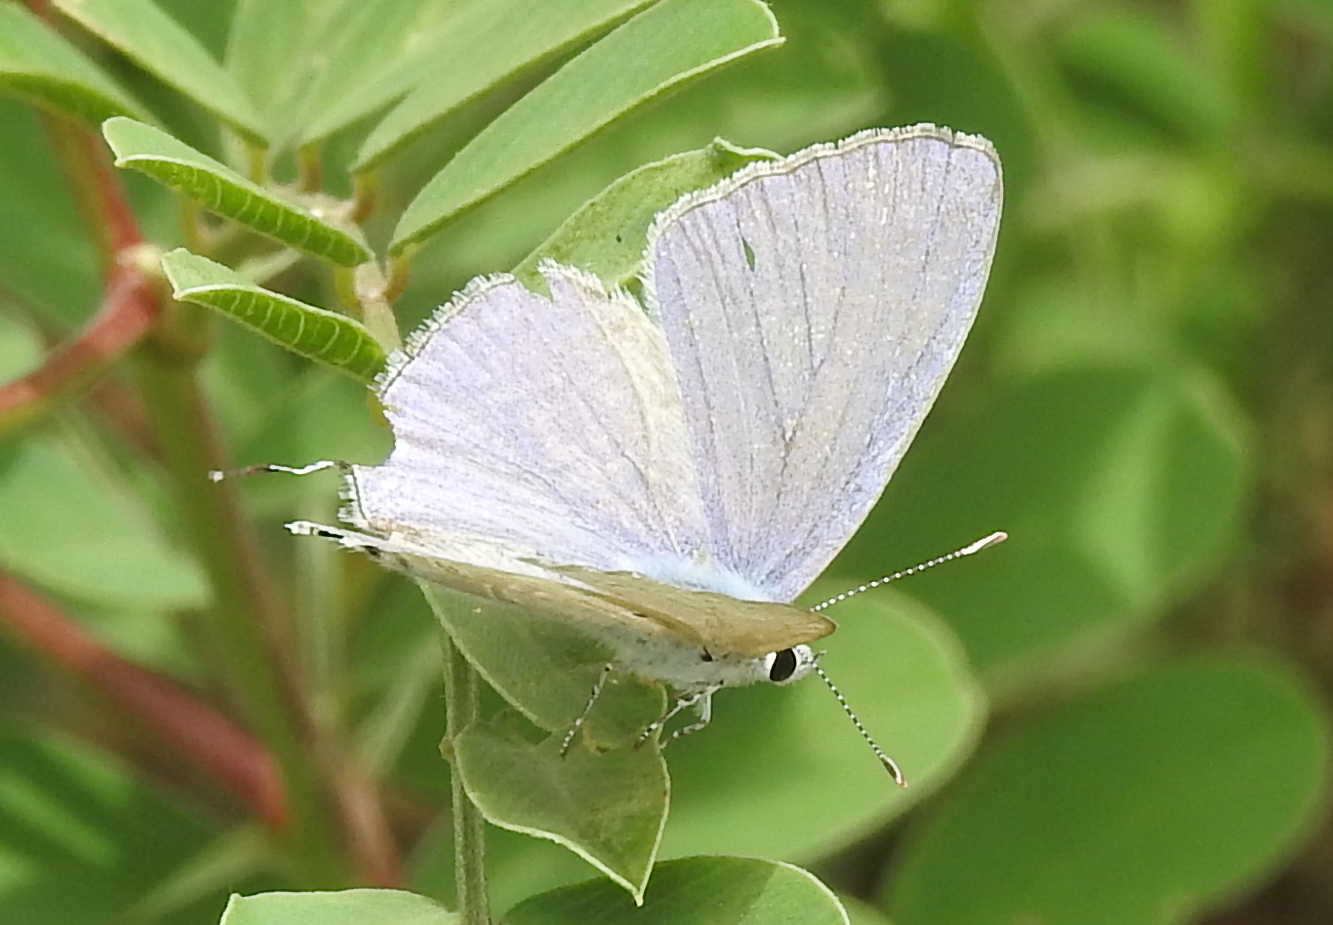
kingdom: Animalia
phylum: Arthropoda
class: Insecta
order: Lepidoptera
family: Lycaenidae
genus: Catochrysops
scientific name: Catochrysops strabo
